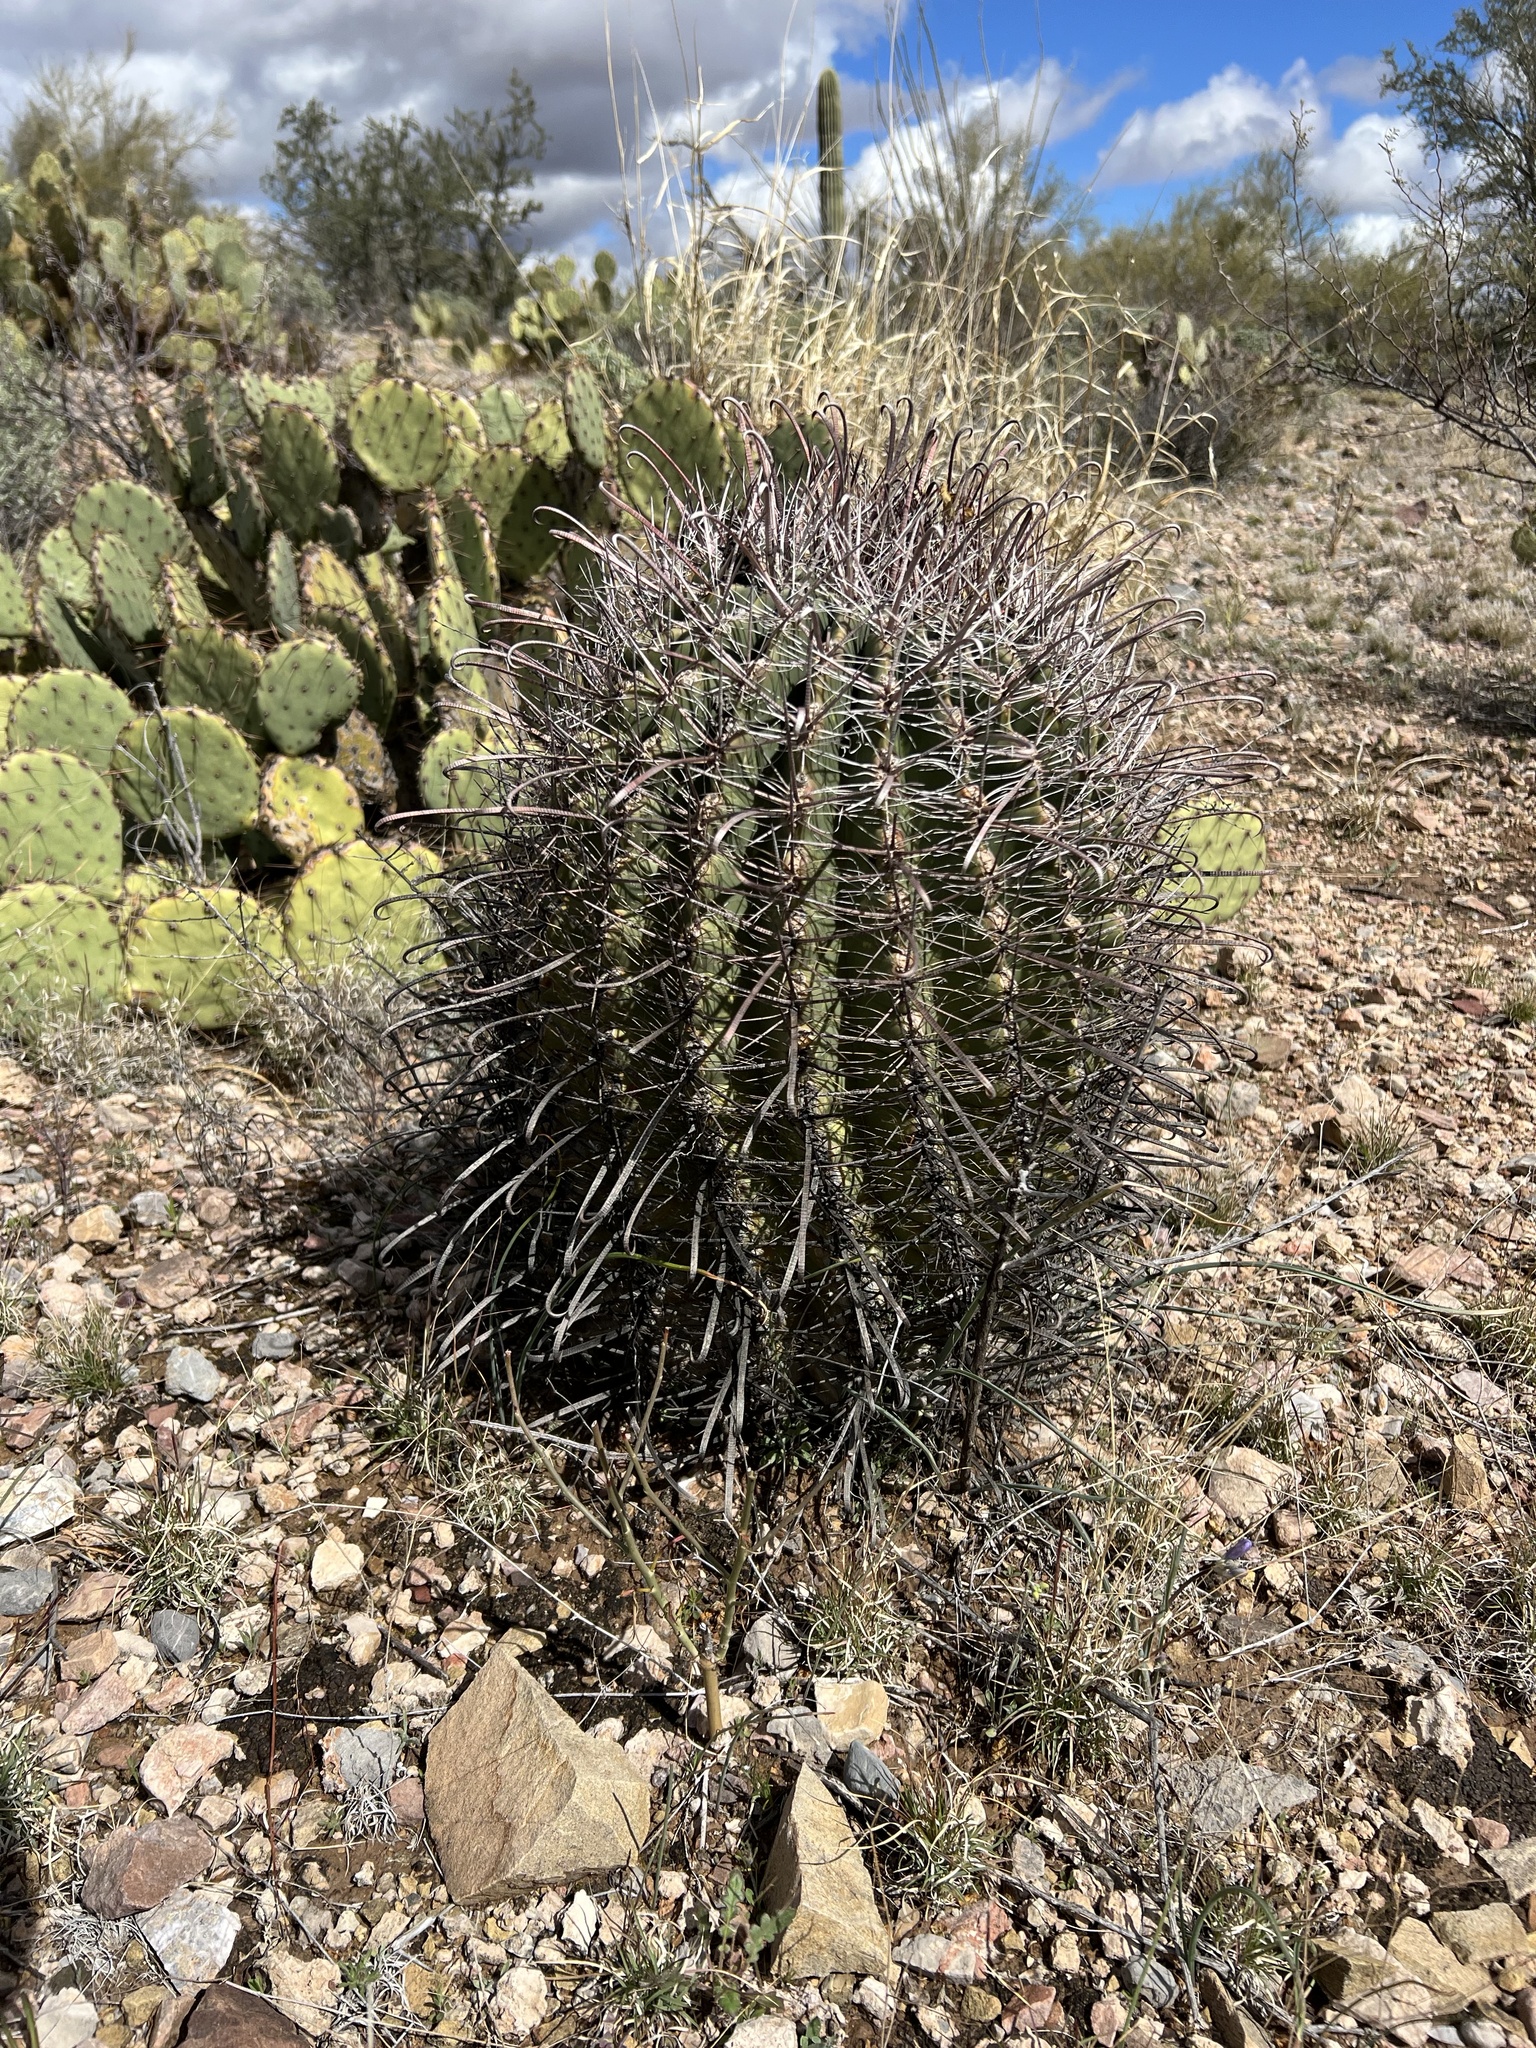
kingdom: Plantae
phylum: Tracheophyta
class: Magnoliopsida
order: Caryophyllales
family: Cactaceae
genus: Ferocactus
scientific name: Ferocactus wislizeni
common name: Candy barrel cactus
